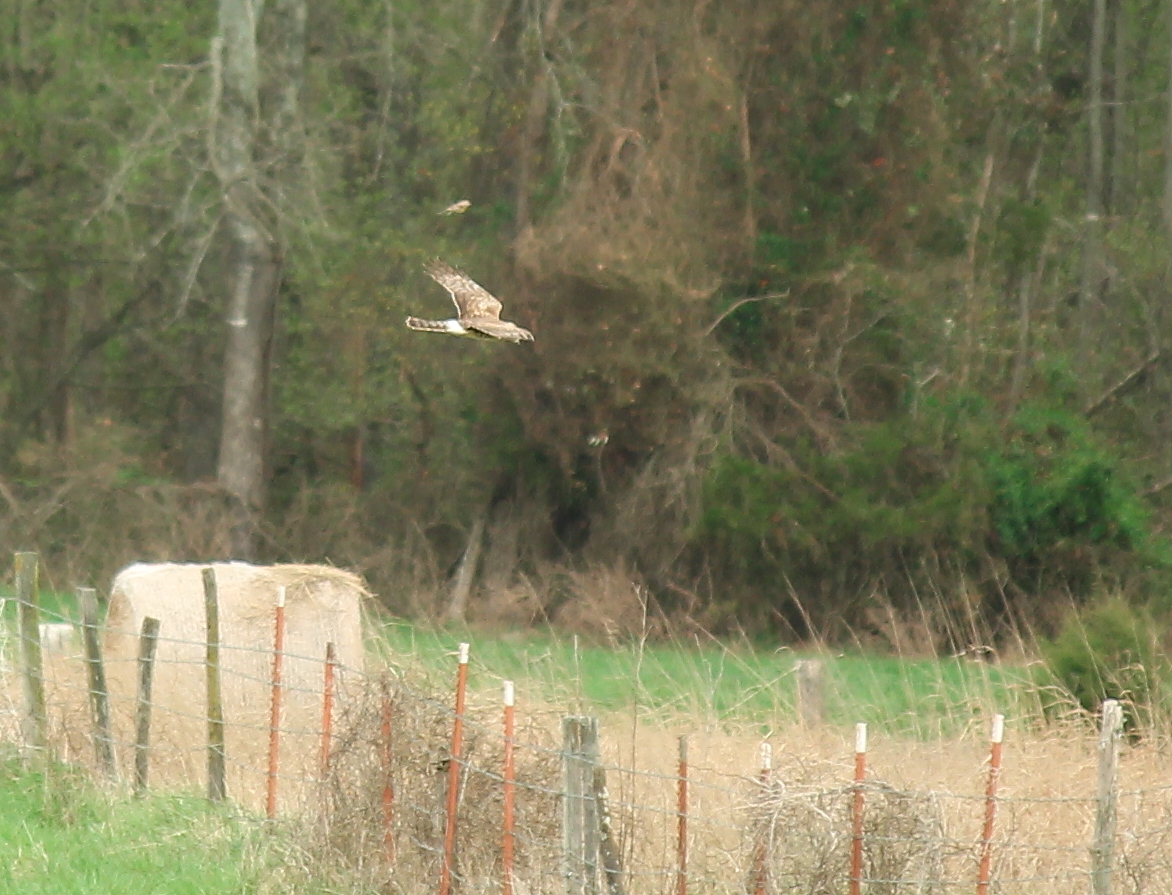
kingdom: Animalia
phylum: Chordata
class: Aves
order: Accipitriformes
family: Accipitridae
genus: Circus
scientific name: Circus cyaneus
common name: Hen harrier
